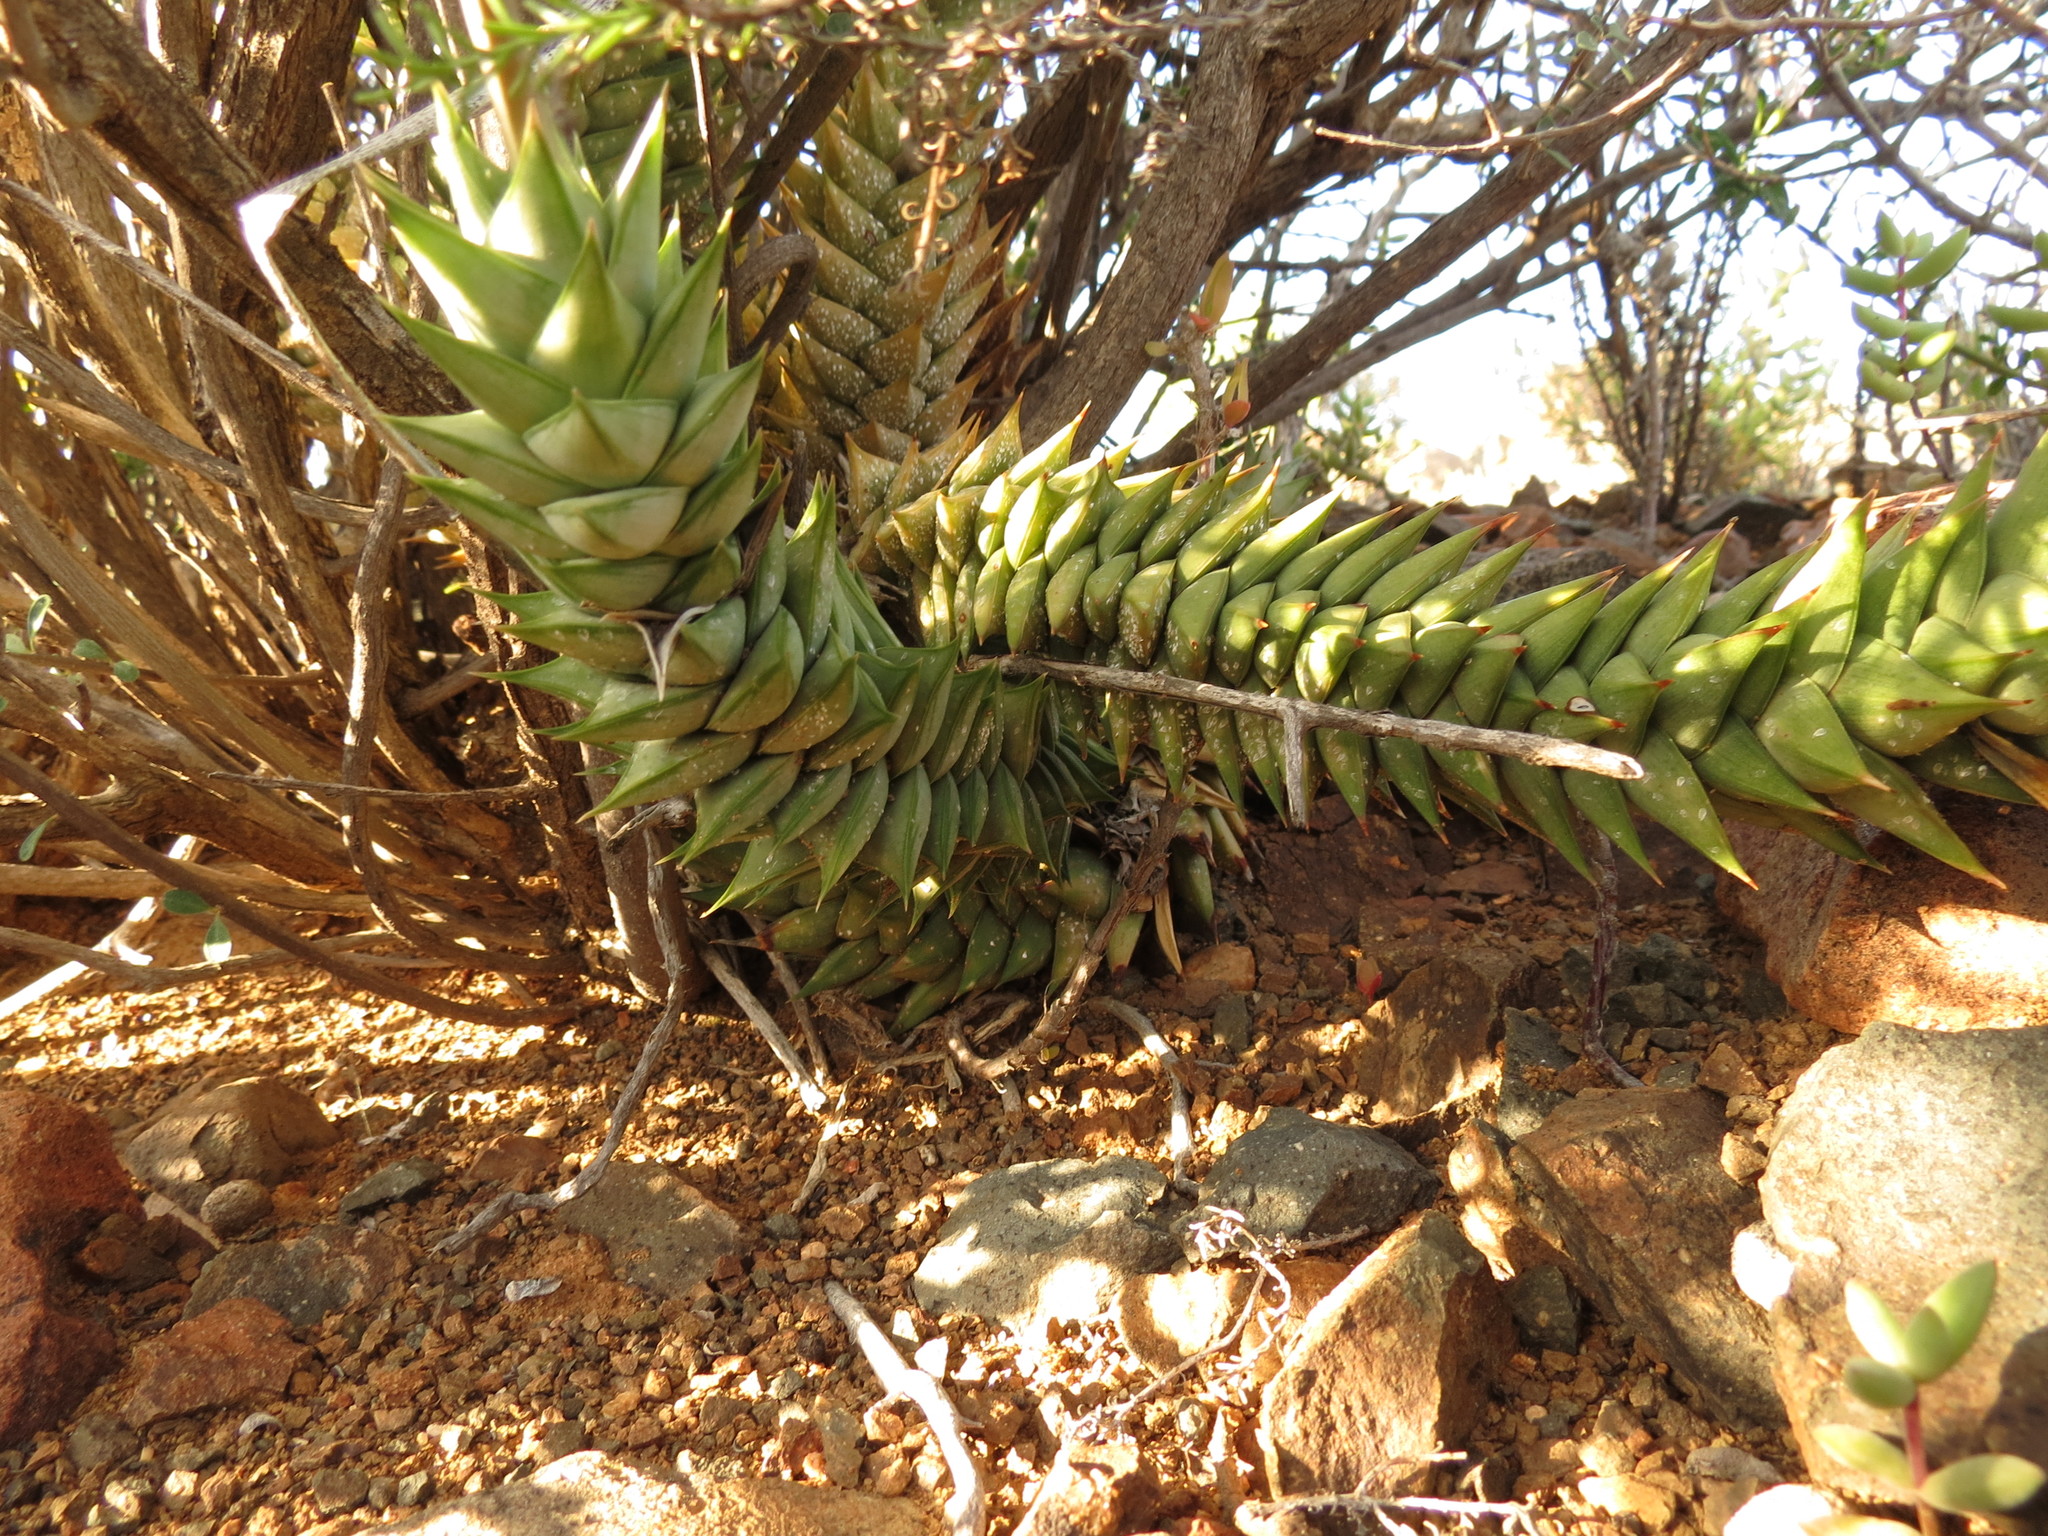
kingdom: Plantae
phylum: Tracheophyta
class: Liliopsida
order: Asparagales
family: Asphodelaceae
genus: Astroloba
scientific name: Astroloba herrei
